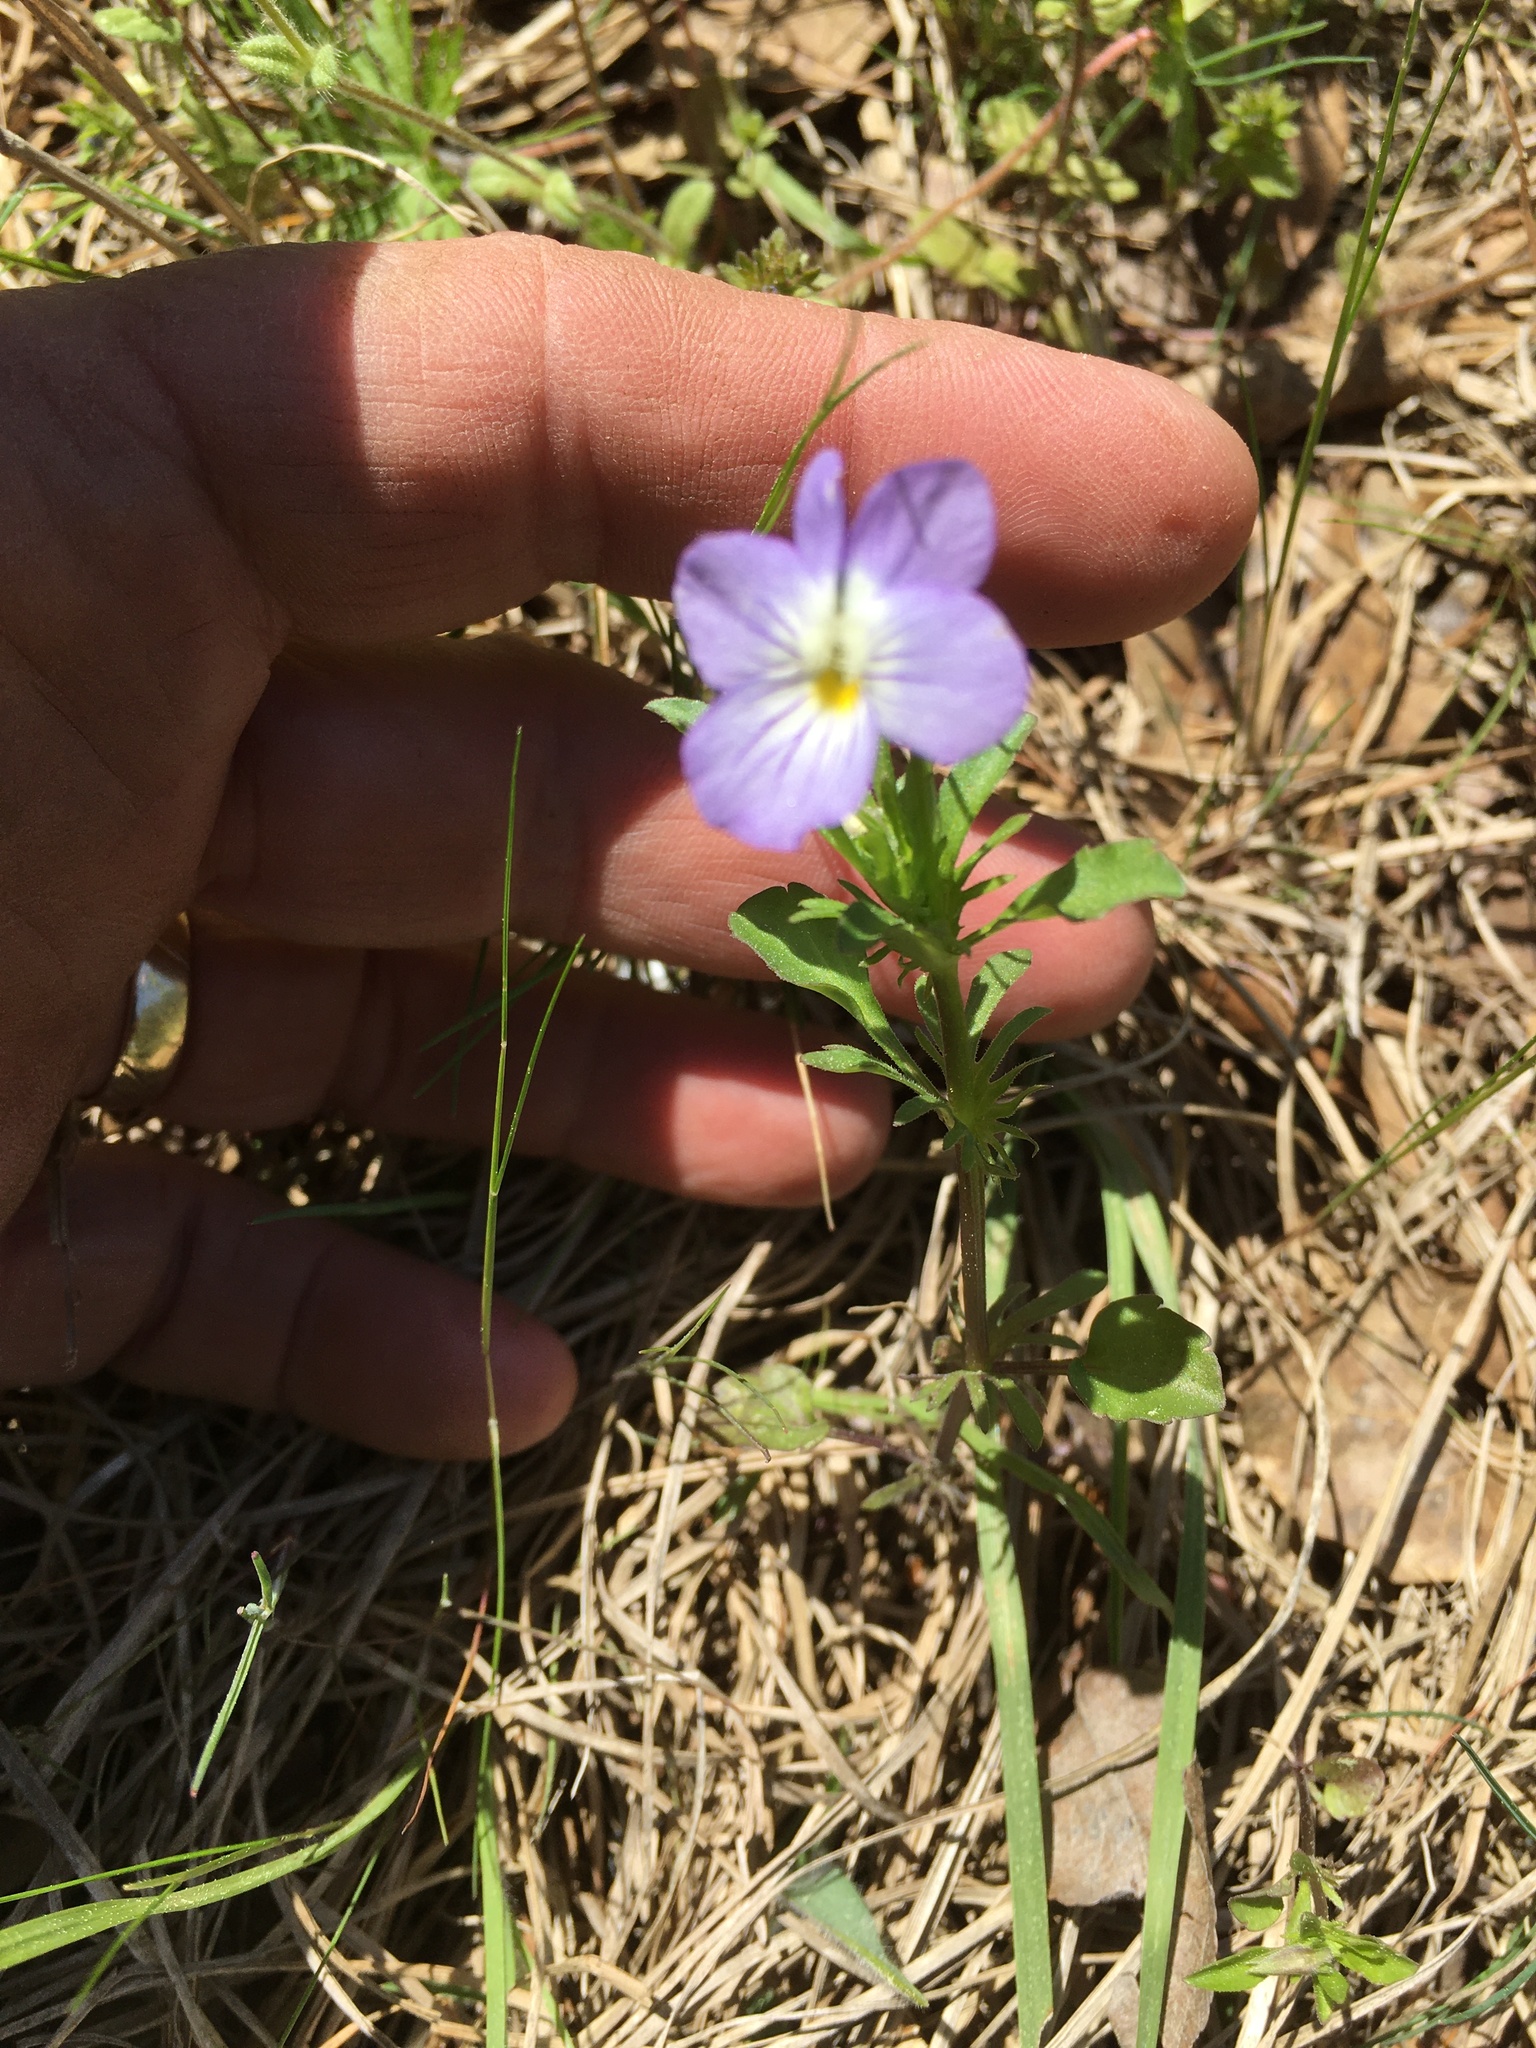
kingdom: Plantae
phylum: Tracheophyta
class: Magnoliopsida
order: Malpighiales
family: Violaceae
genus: Viola
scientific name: Viola rafinesquei
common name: American field pansy
